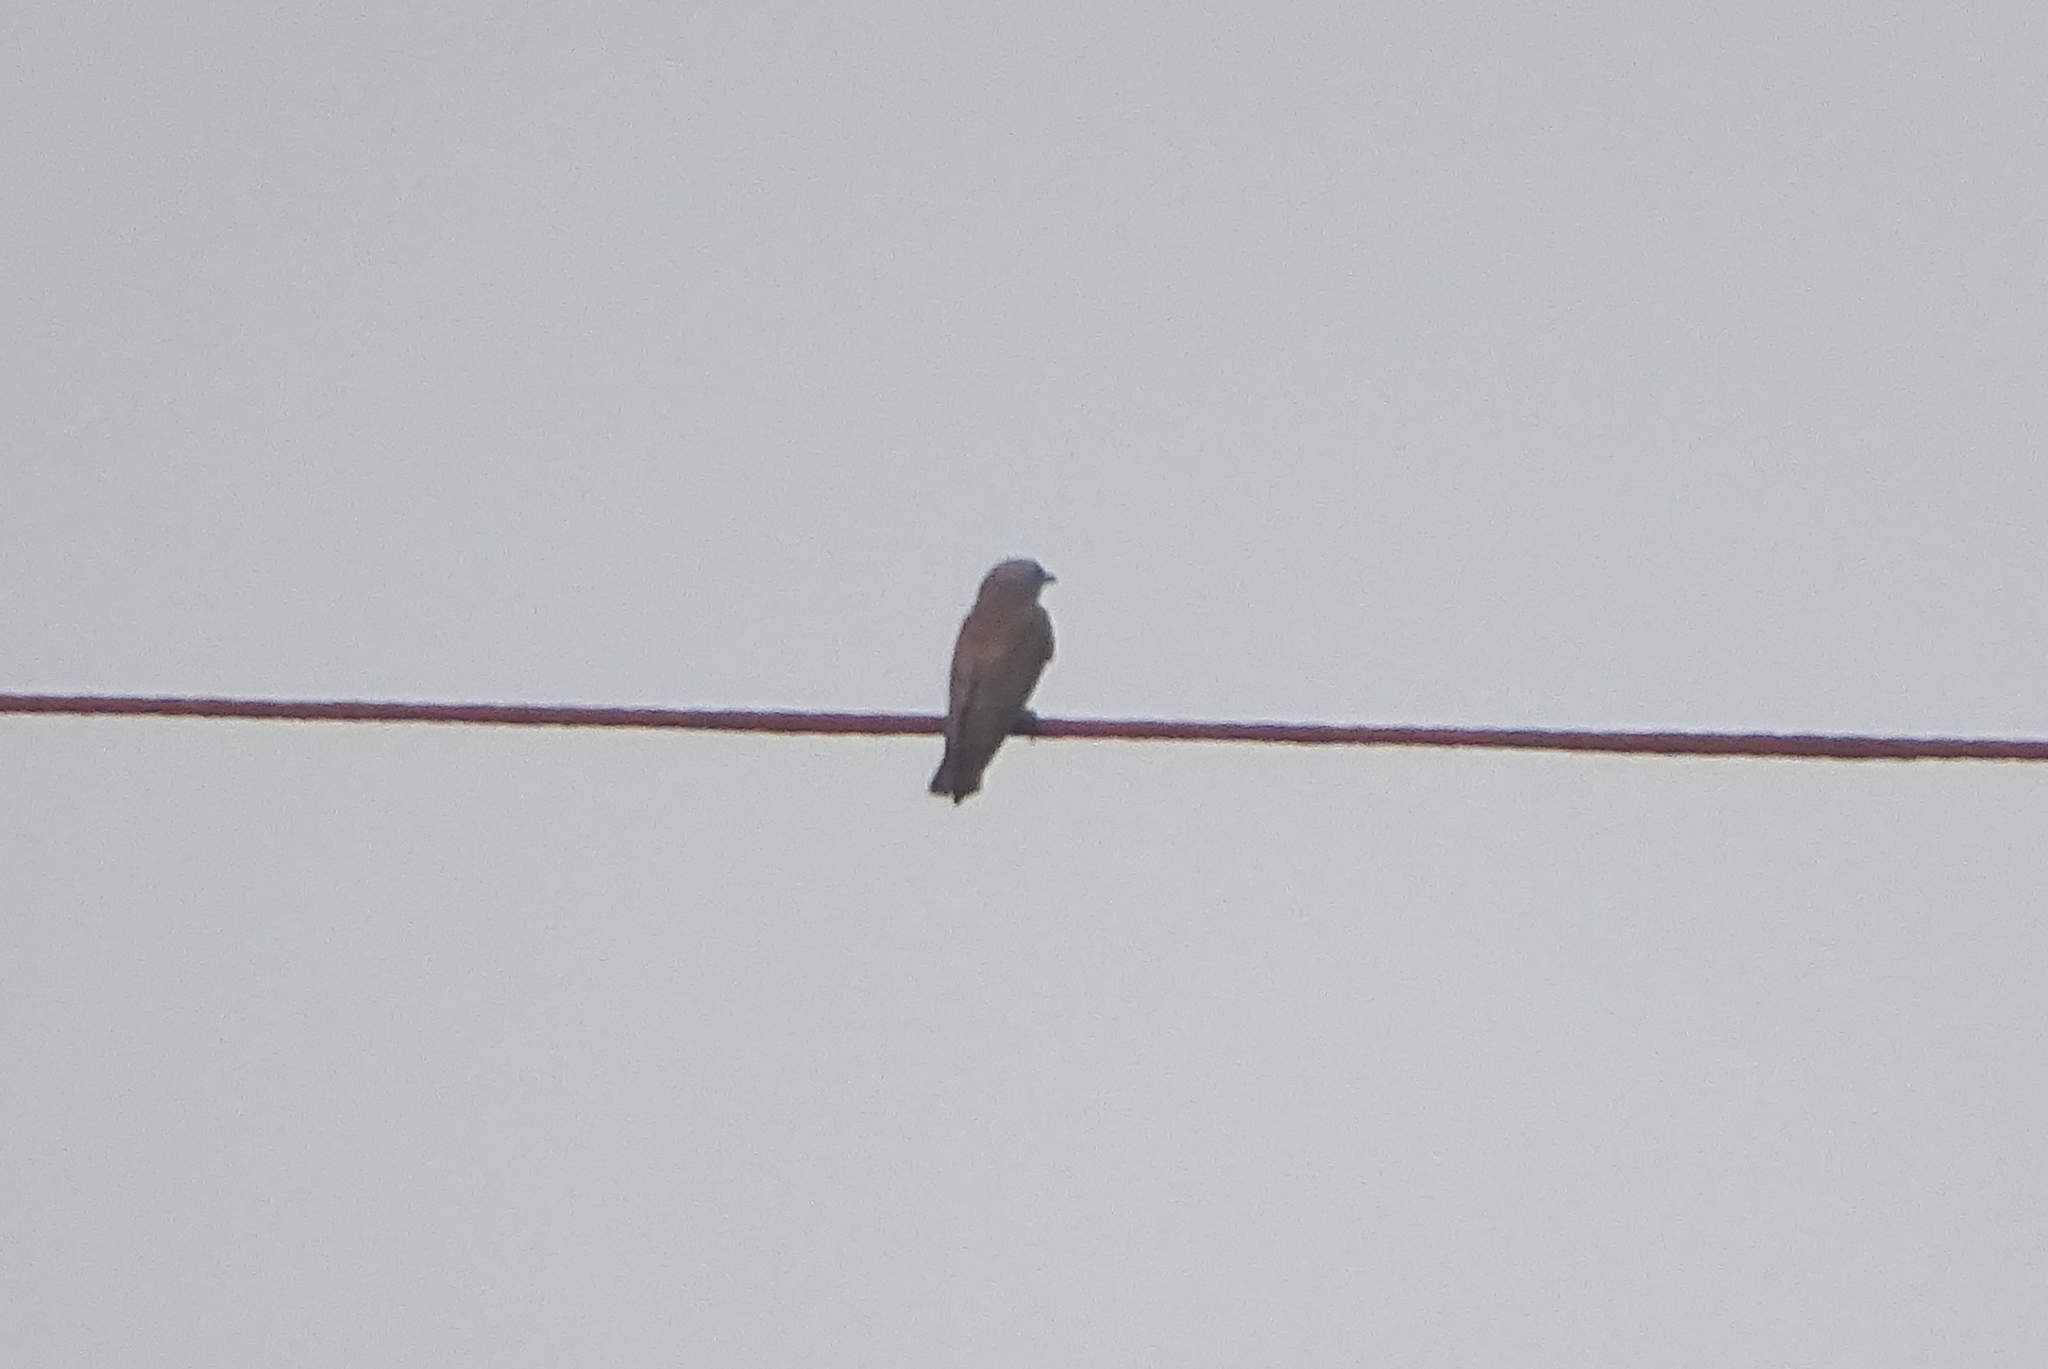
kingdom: Animalia
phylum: Chordata
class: Aves
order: Passeriformes
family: Artamidae
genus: Artamus
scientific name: Artamus fuscus
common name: Ashy woodswallow
